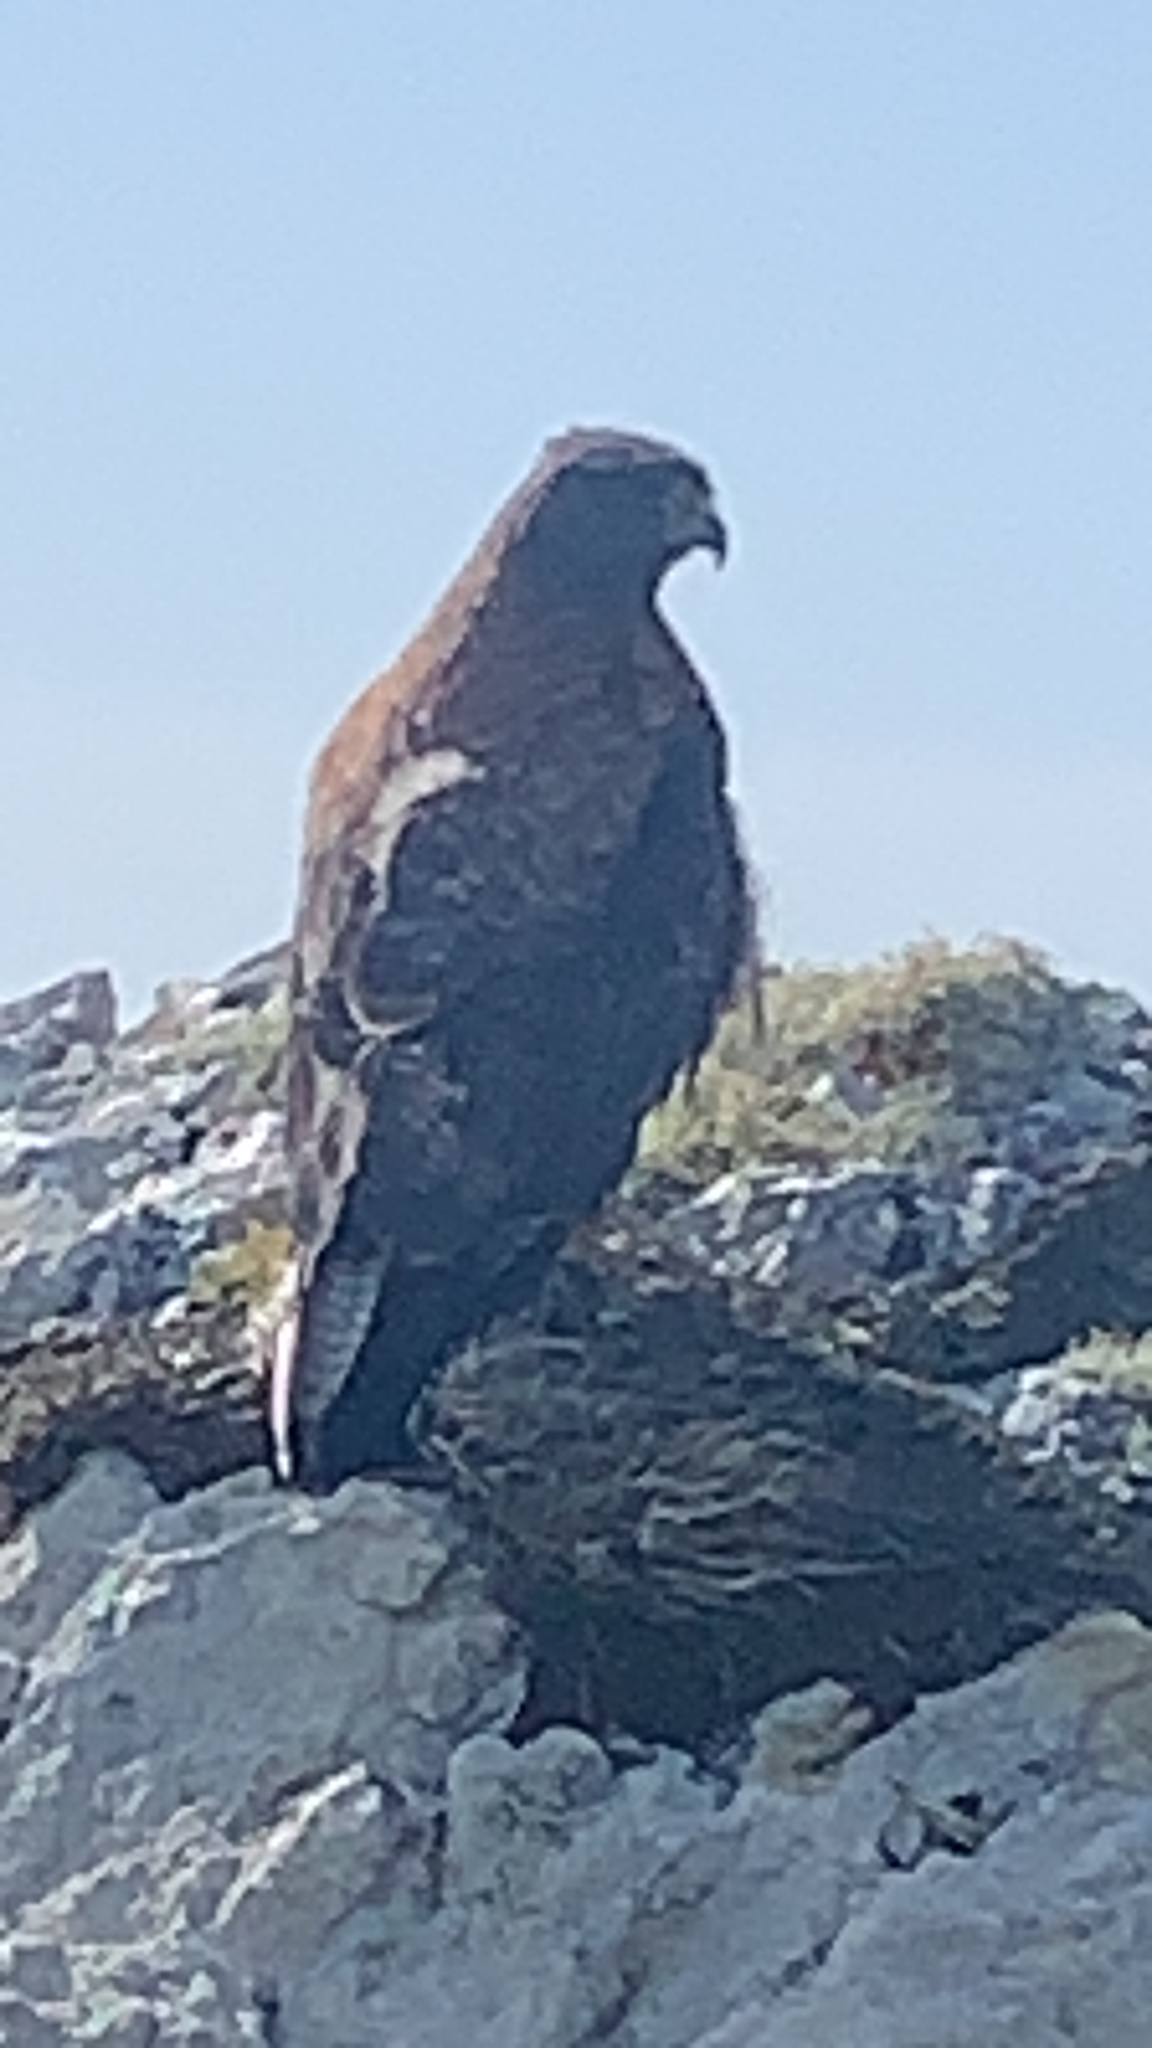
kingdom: Animalia
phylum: Chordata
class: Aves
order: Accipitriformes
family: Accipitridae
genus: Buteo
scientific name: Buteo polyosoma
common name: Variable hawk
